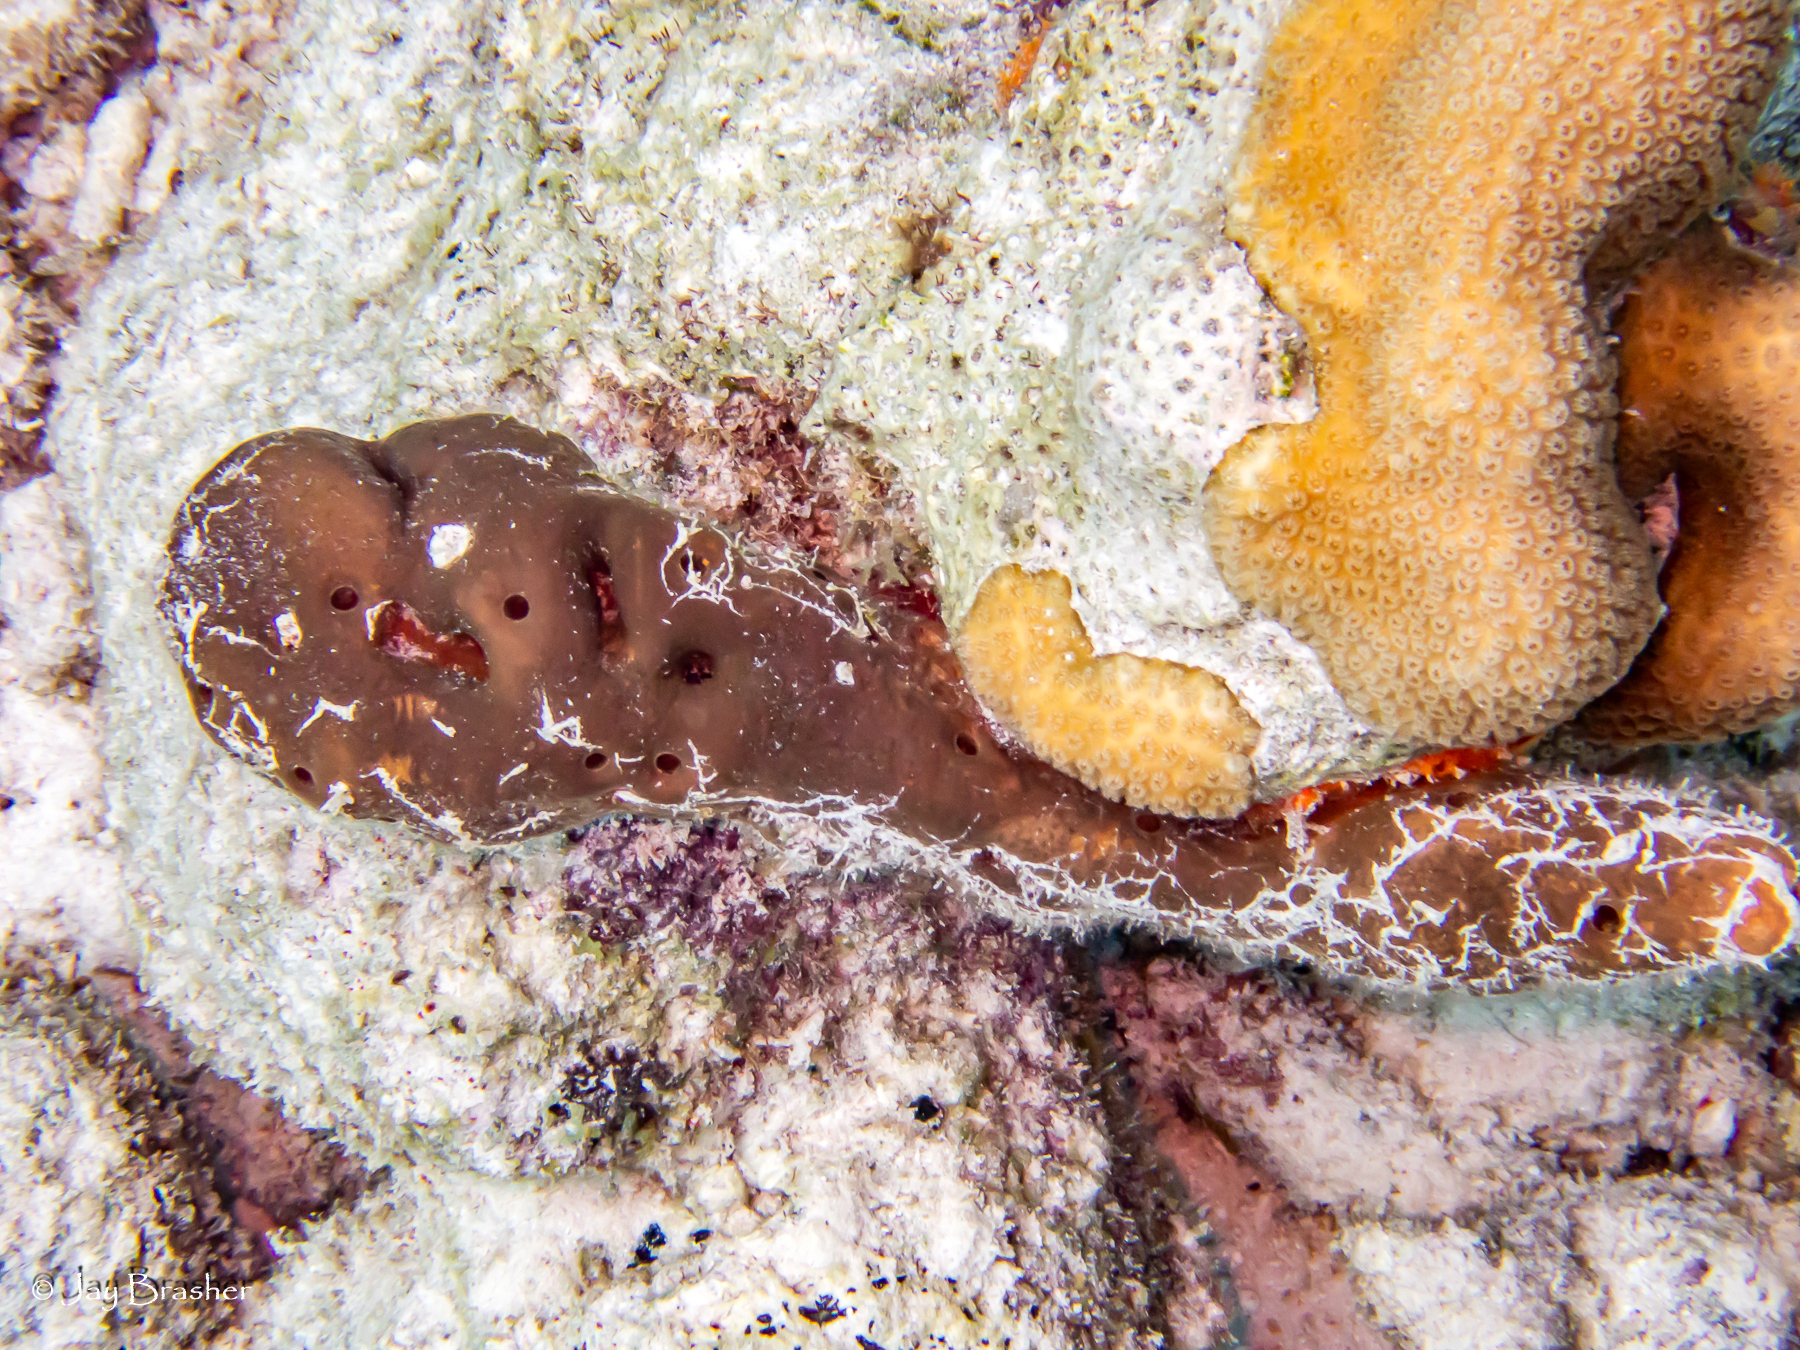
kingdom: Animalia
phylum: Porifera
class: Demospongiae
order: Agelasida
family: Agelasidae
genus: Agelas
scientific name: Agelas conifera
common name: Brown tube sponge
